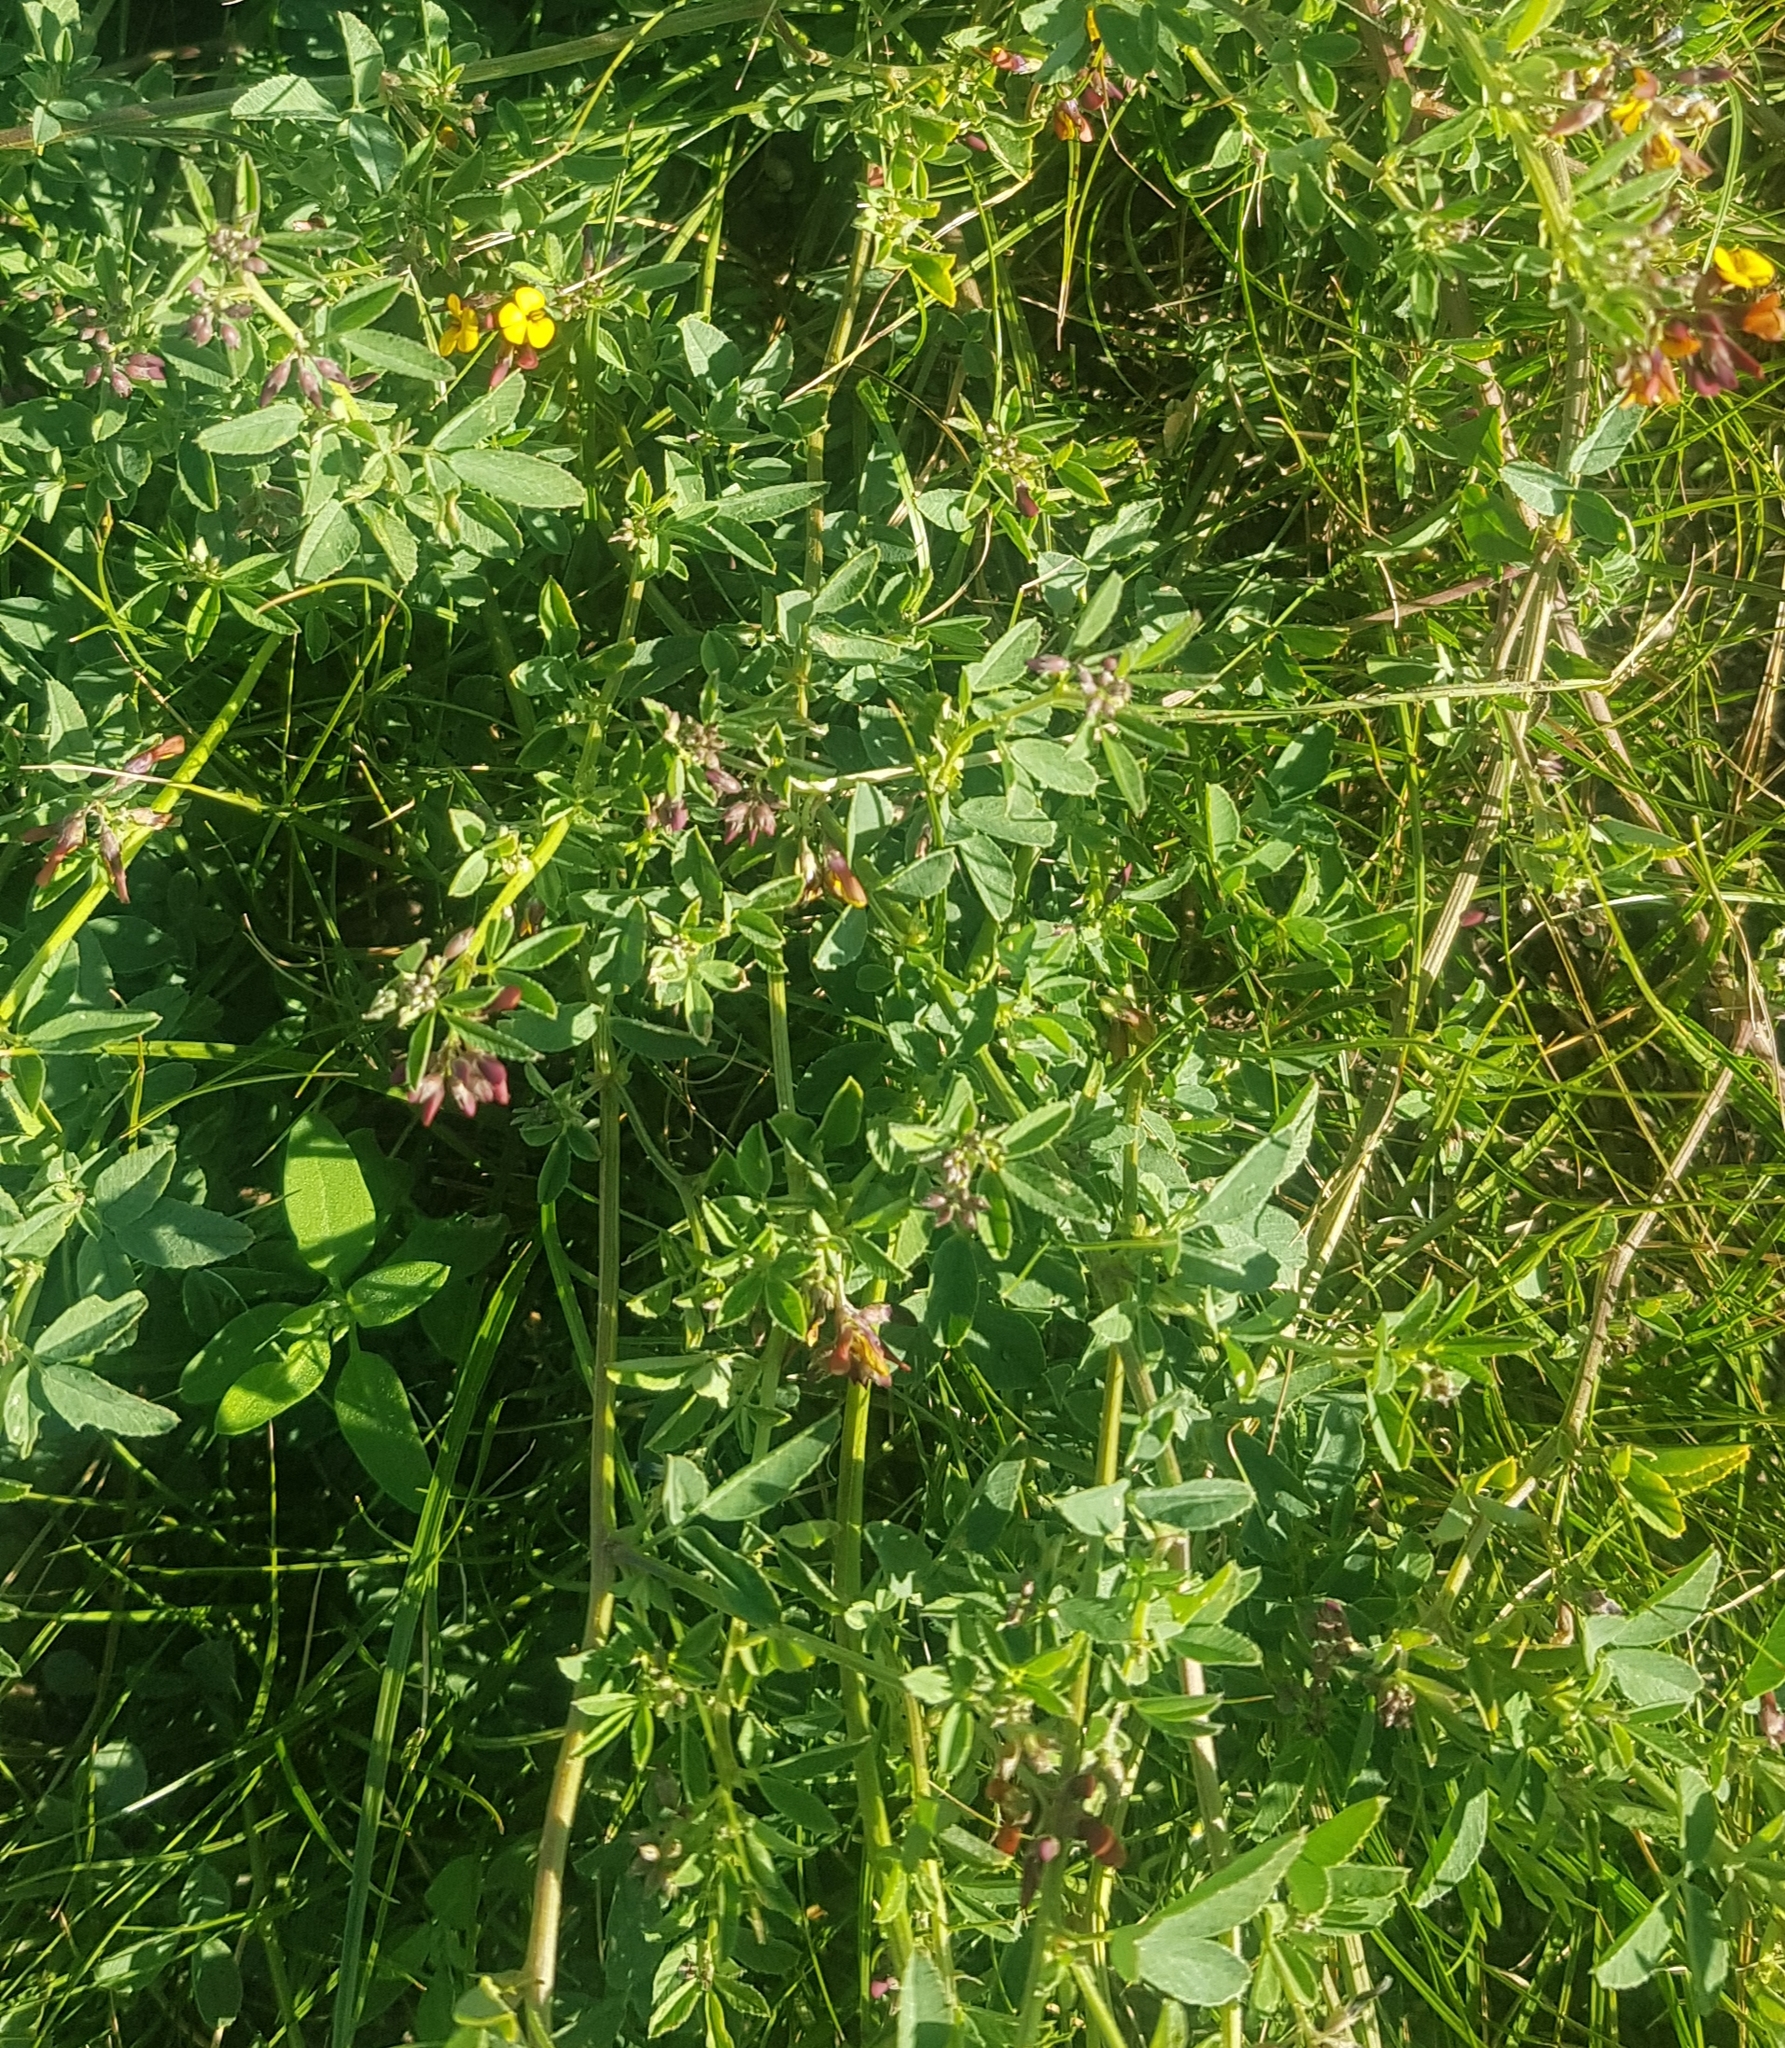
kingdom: Plantae
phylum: Tracheophyta
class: Magnoliopsida
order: Fabales
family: Fabaceae
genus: Medicago
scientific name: Medicago ruthenica
